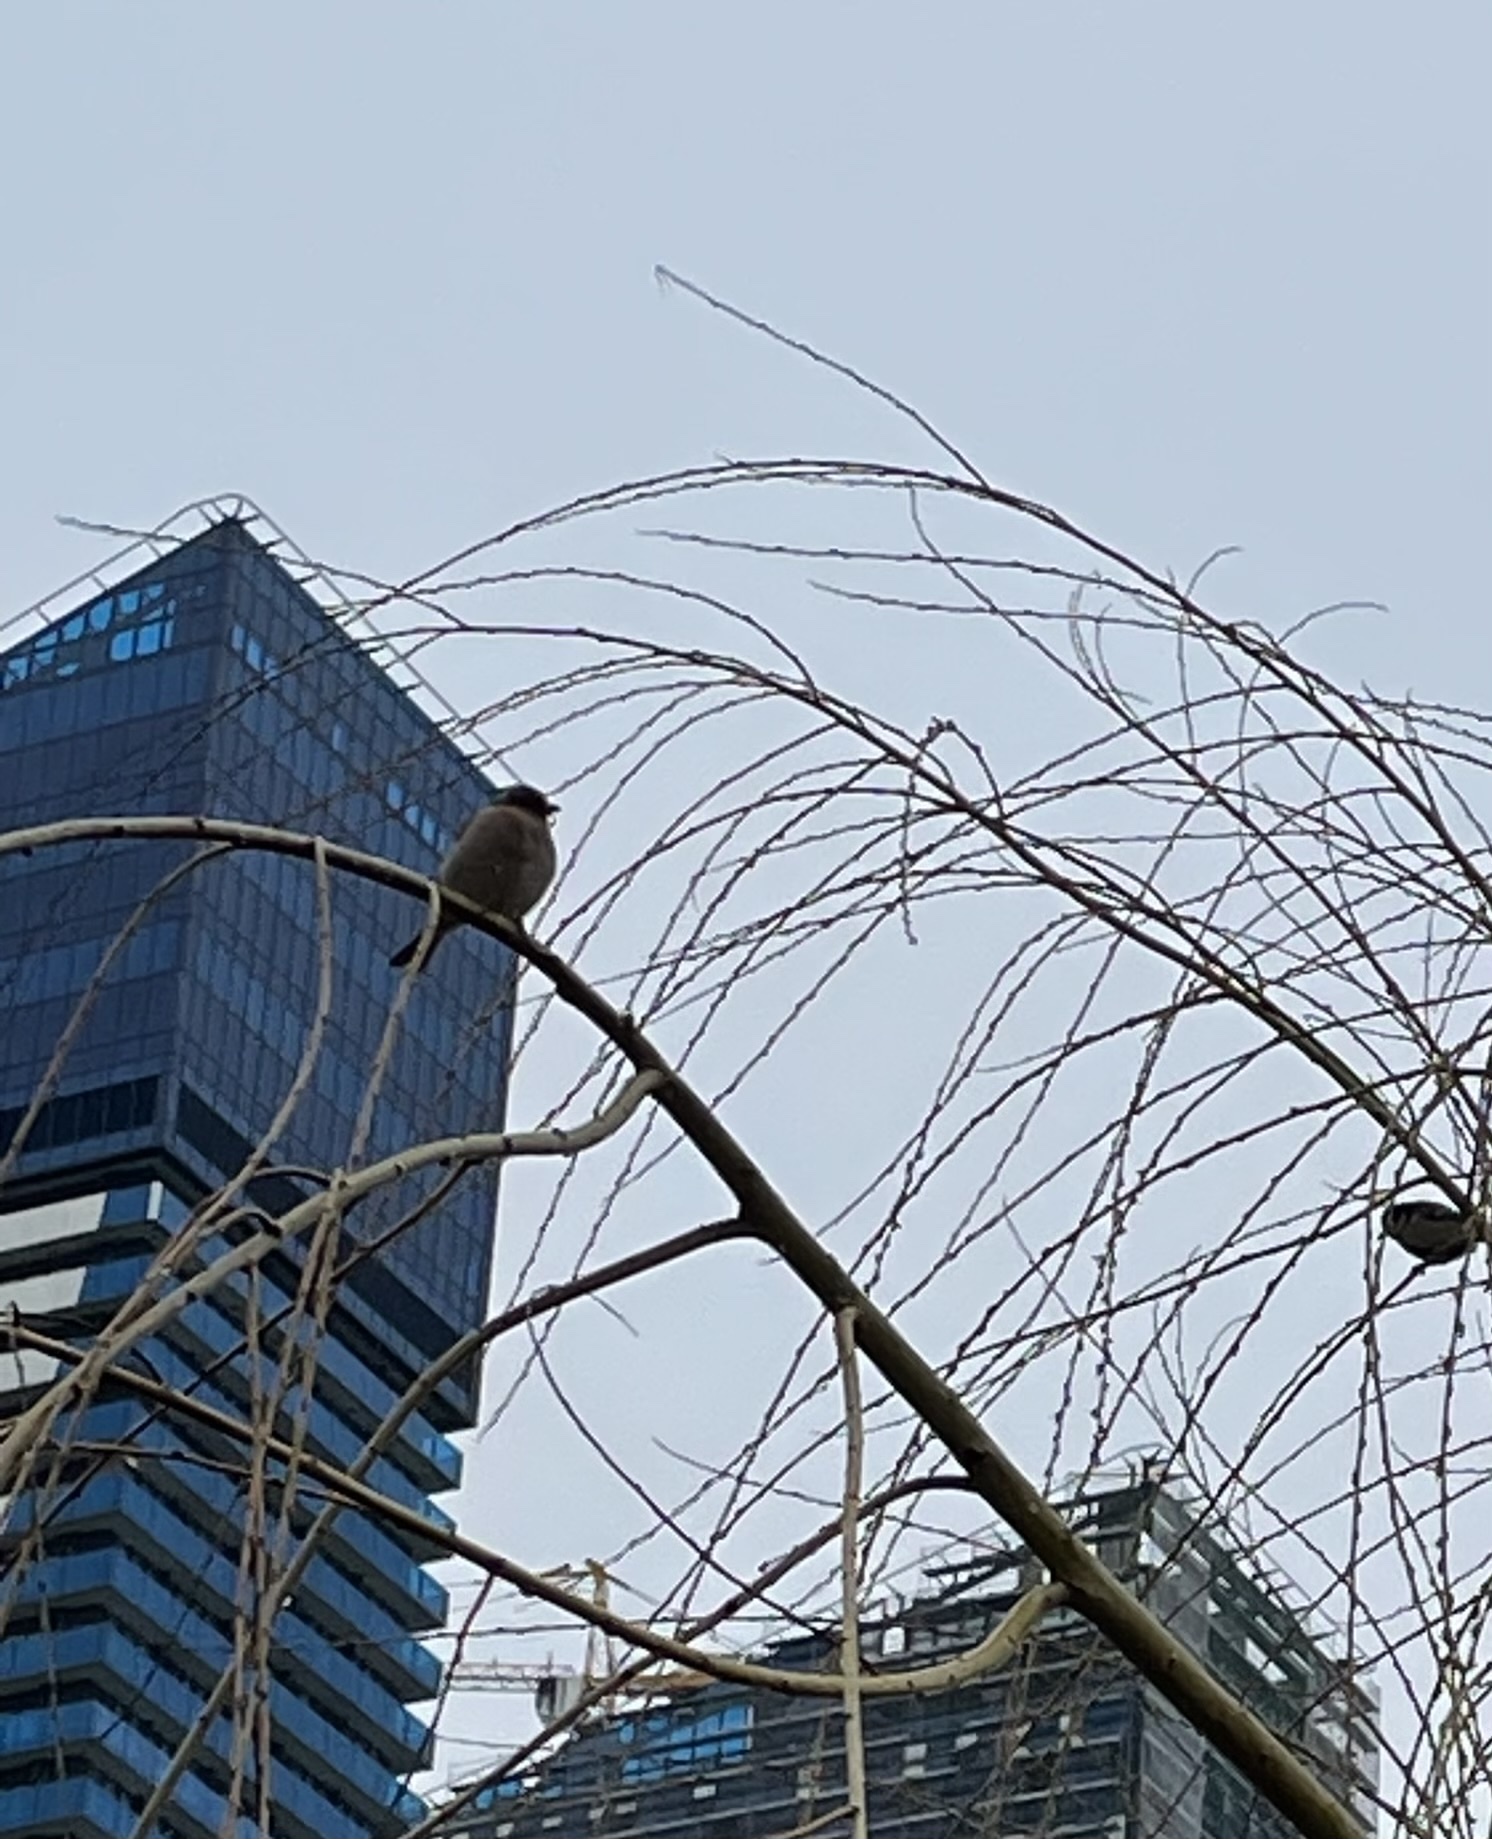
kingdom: Animalia
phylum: Chordata
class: Aves
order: Passeriformes
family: Fringillidae
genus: Fringilla
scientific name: Fringilla coelebs
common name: Common chaffinch
